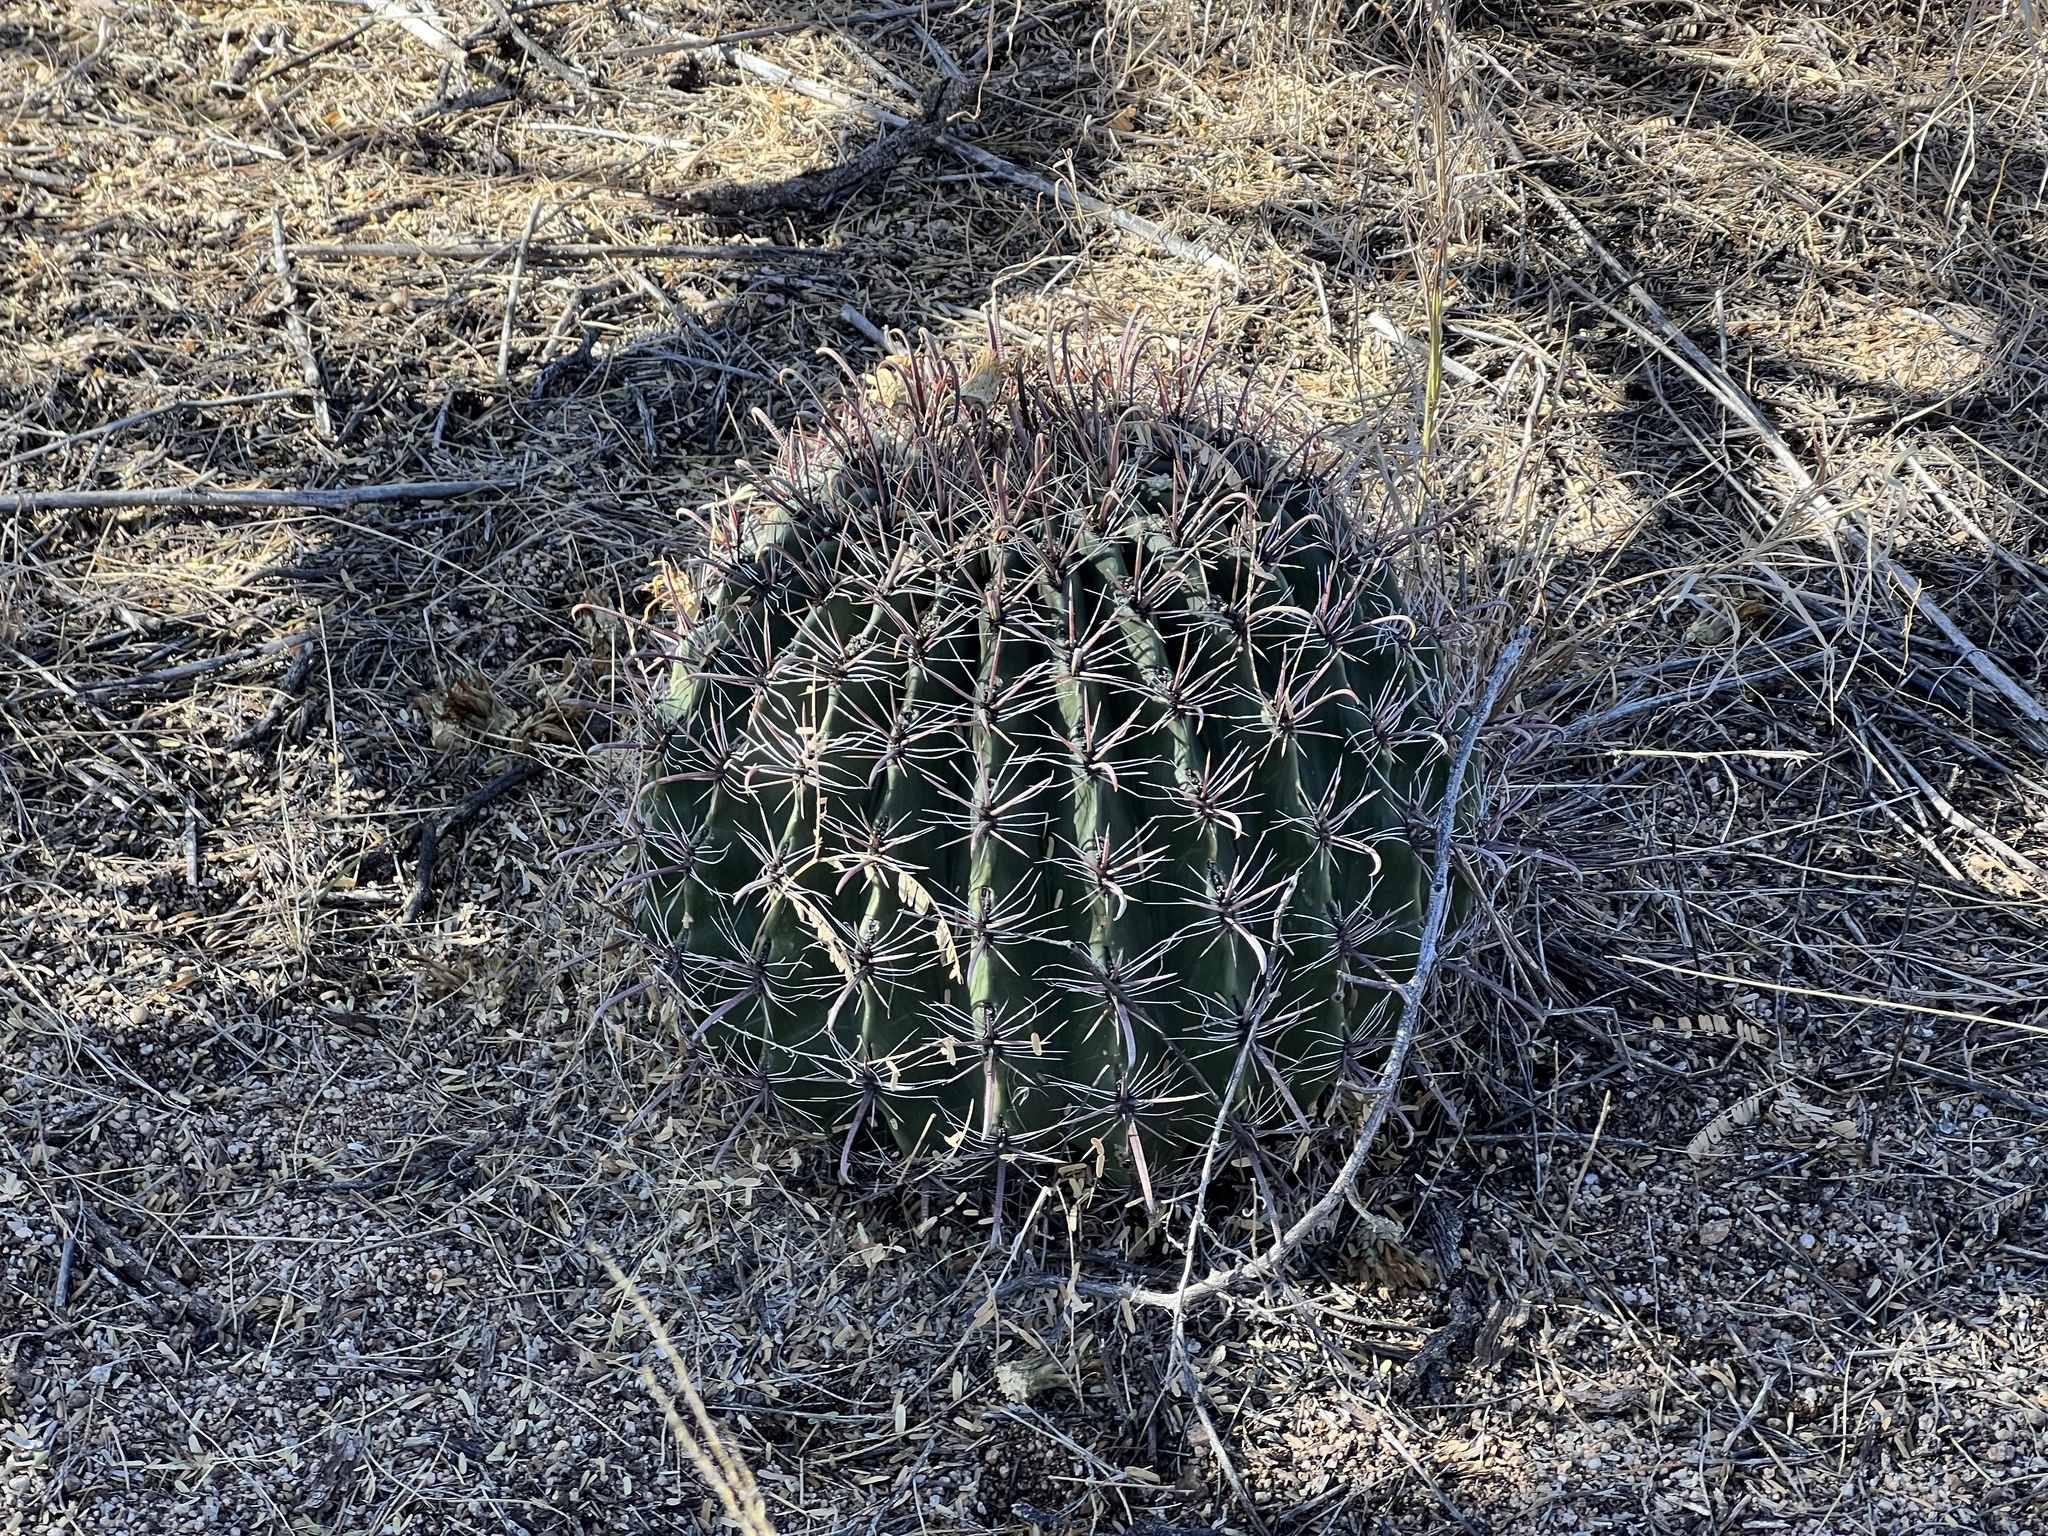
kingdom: Plantae
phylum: Tracheophyta
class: Magnoliopsida
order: Caryophyllales
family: Cactaceae
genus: Ferocactus
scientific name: Ferocactus wislizeni
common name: Candy barrel cactus
